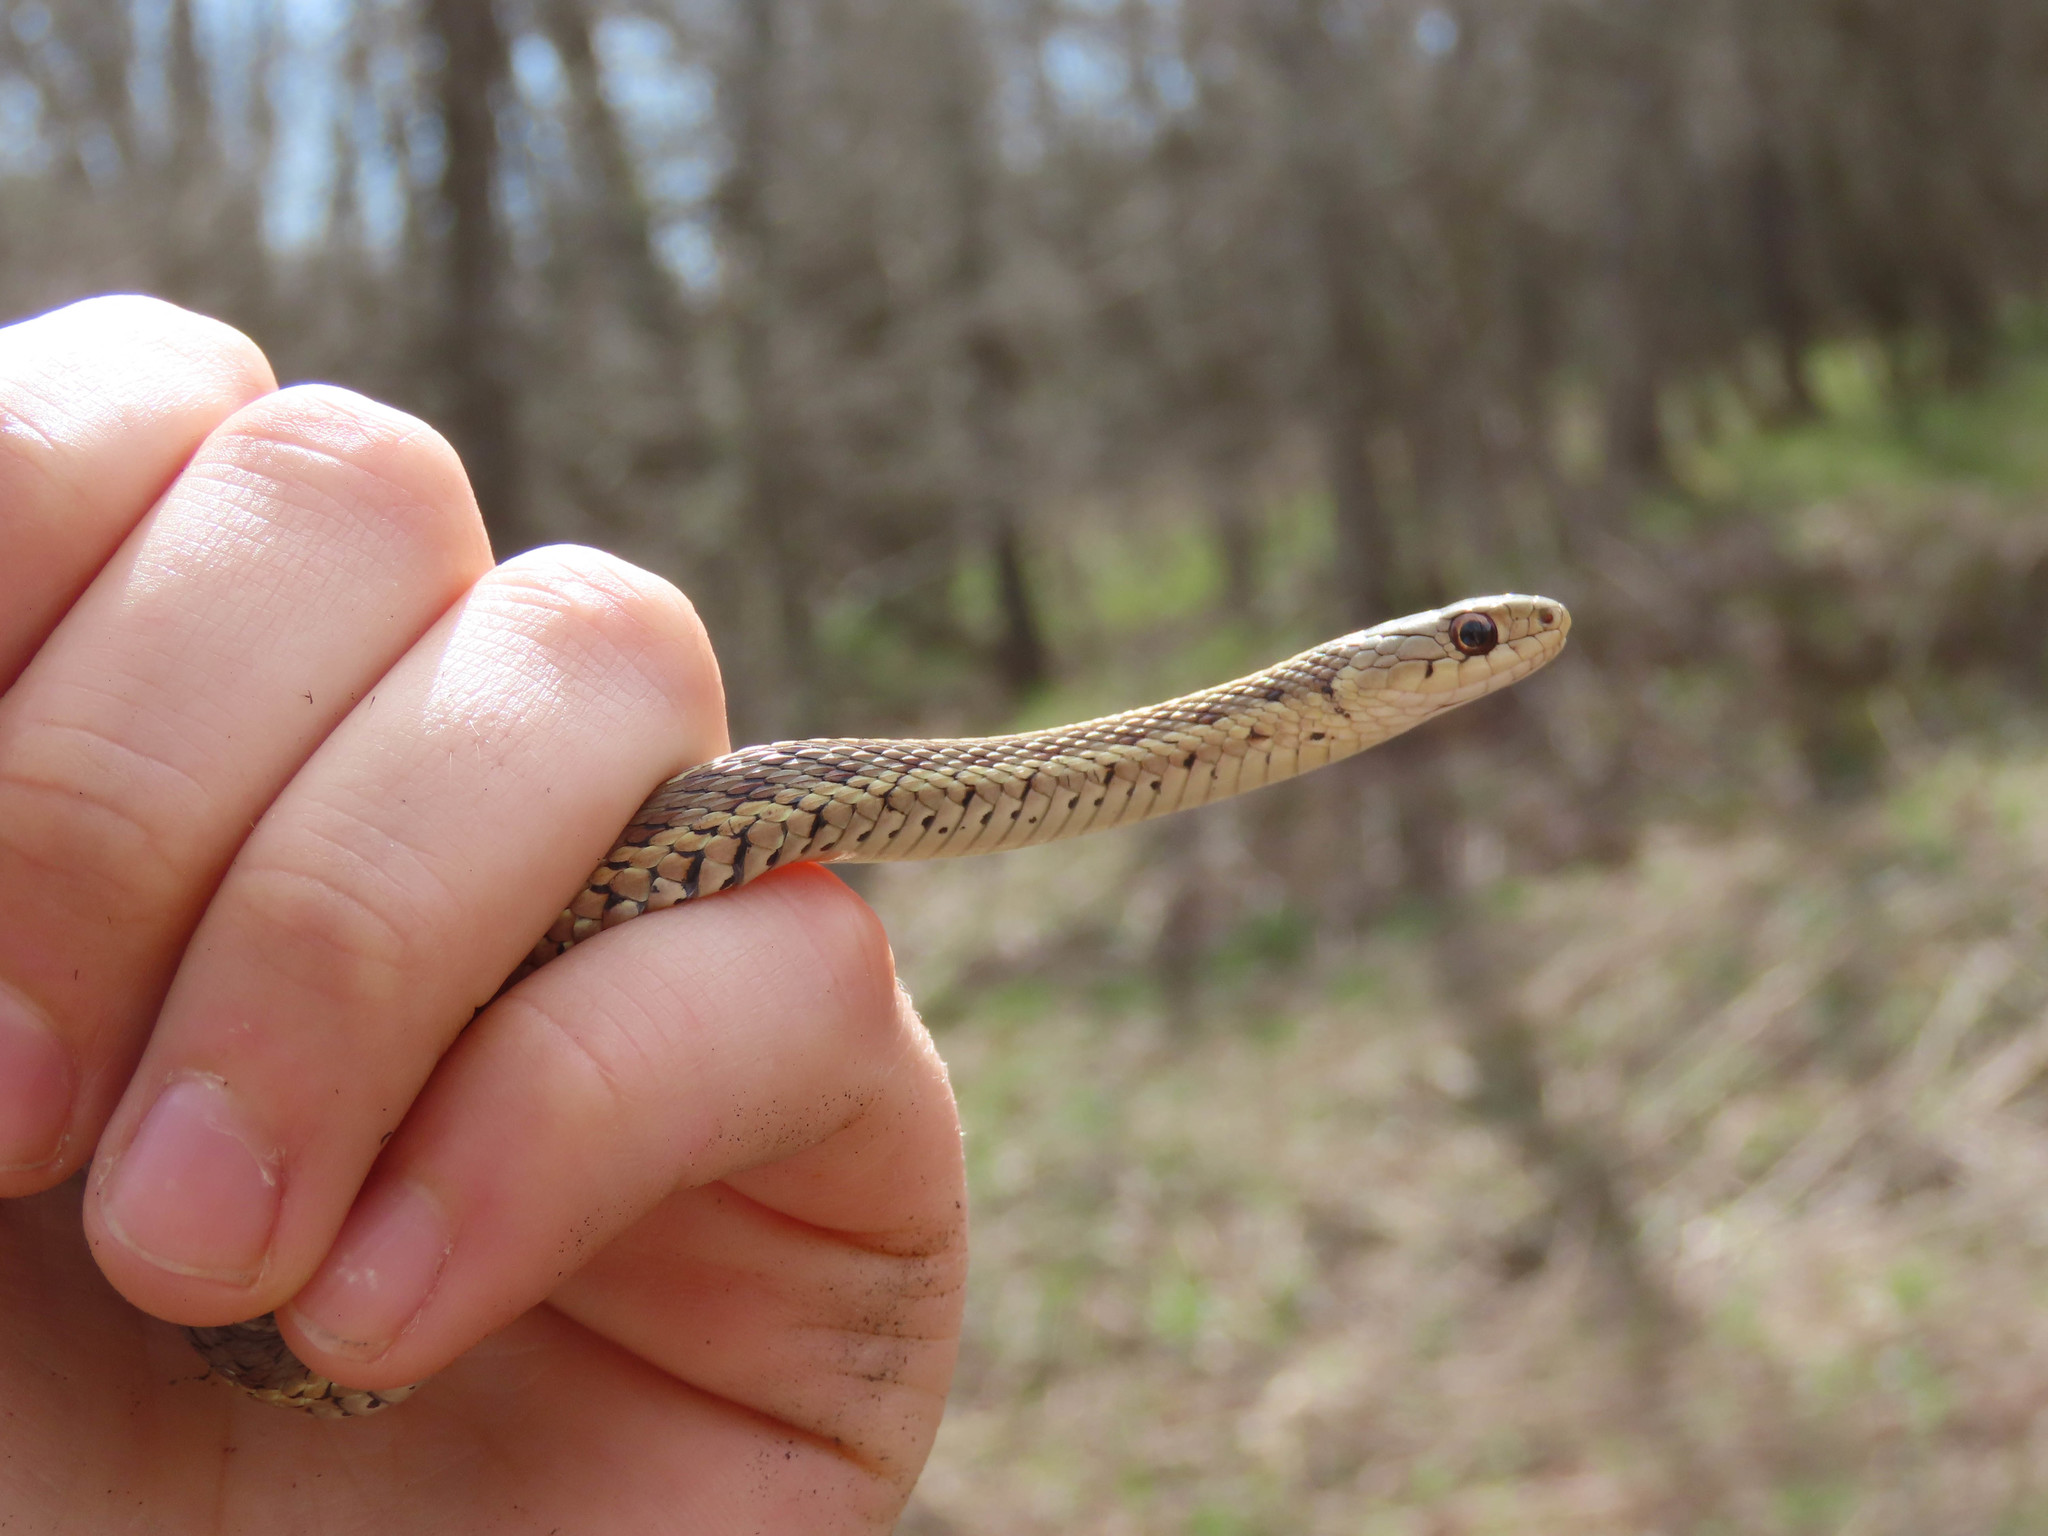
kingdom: Animalia
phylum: Chordata
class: Squamata
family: Colubridae
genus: Thamnophis
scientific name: Thamnophis sirtalis
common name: Common garter snake
